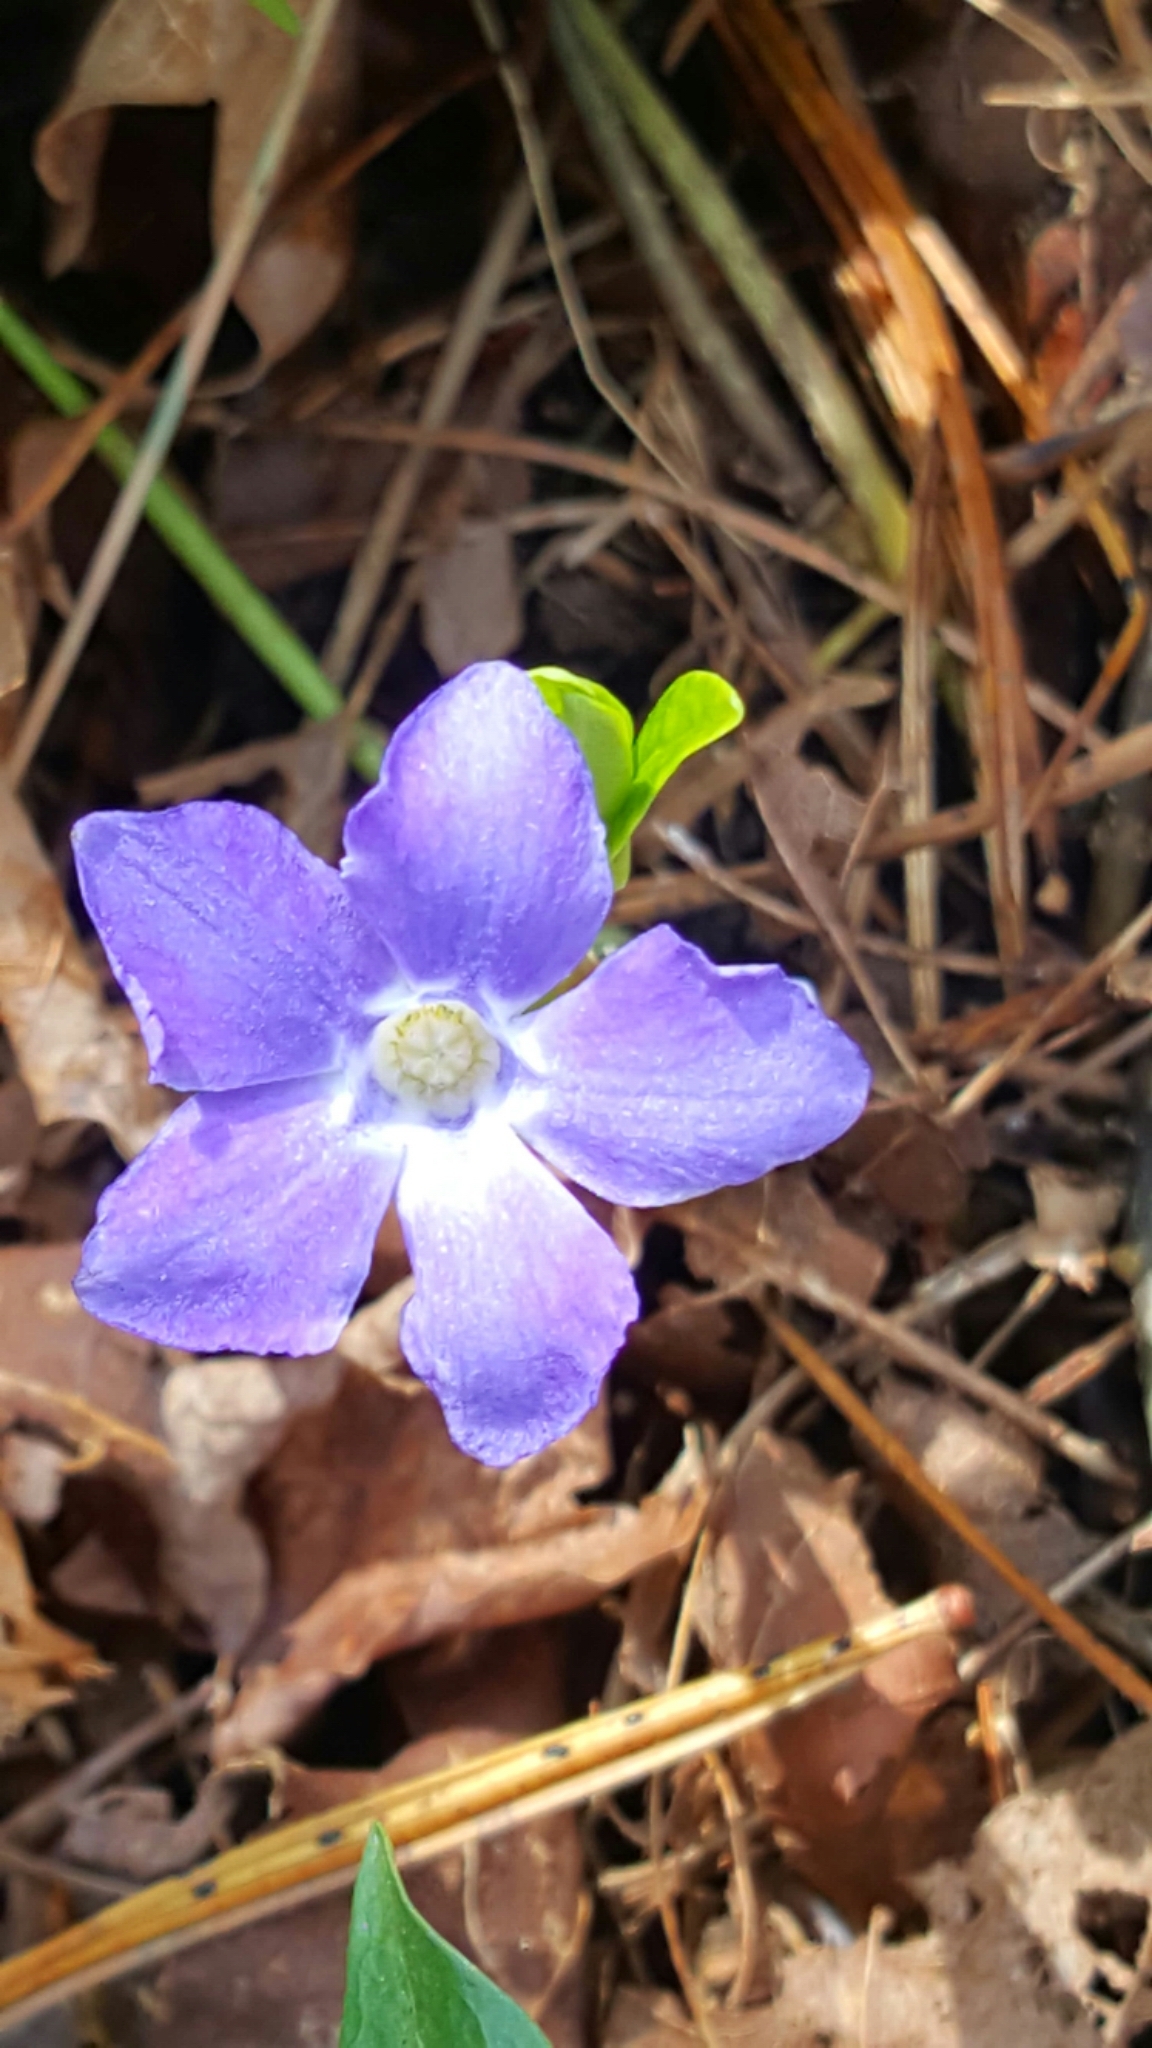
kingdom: Plantae
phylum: Tracheophyta
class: Magnoliopsida
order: Gentianales
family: Apocynaceae
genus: Vinca
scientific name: Vinca minor
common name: Lesser periwinkle
